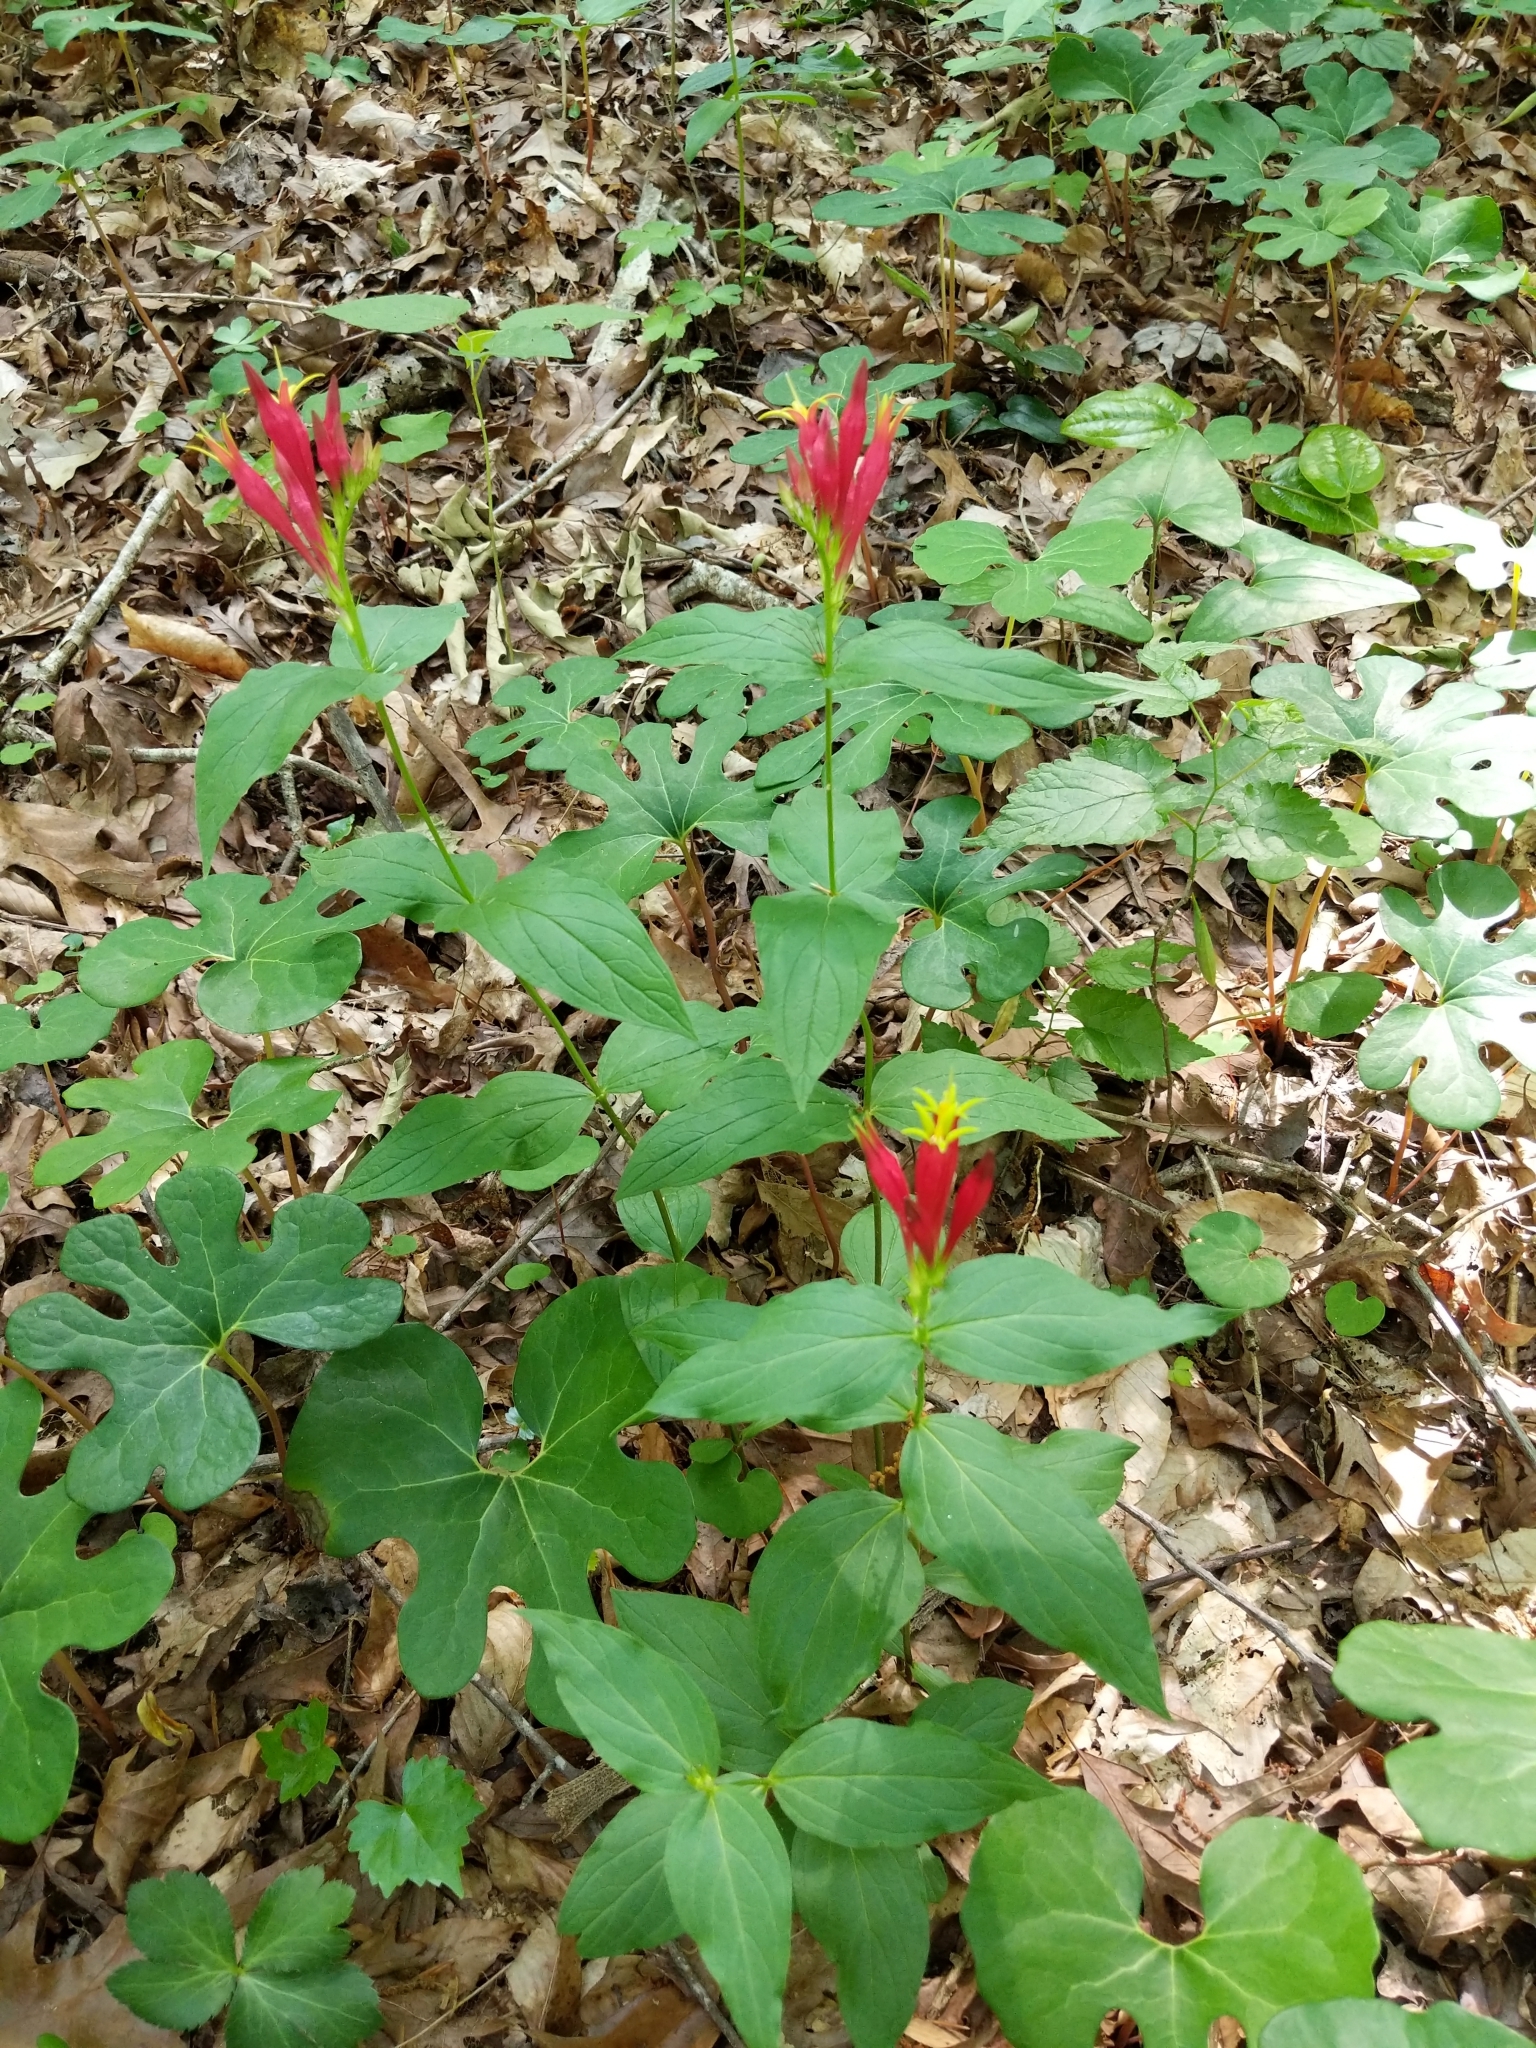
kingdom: Plantae
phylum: Tracheophyta
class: Magnoliopsida
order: Gentianales
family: Loganiaceae
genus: Spigelia
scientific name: Spigelia marilandica
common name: Indian-pink
